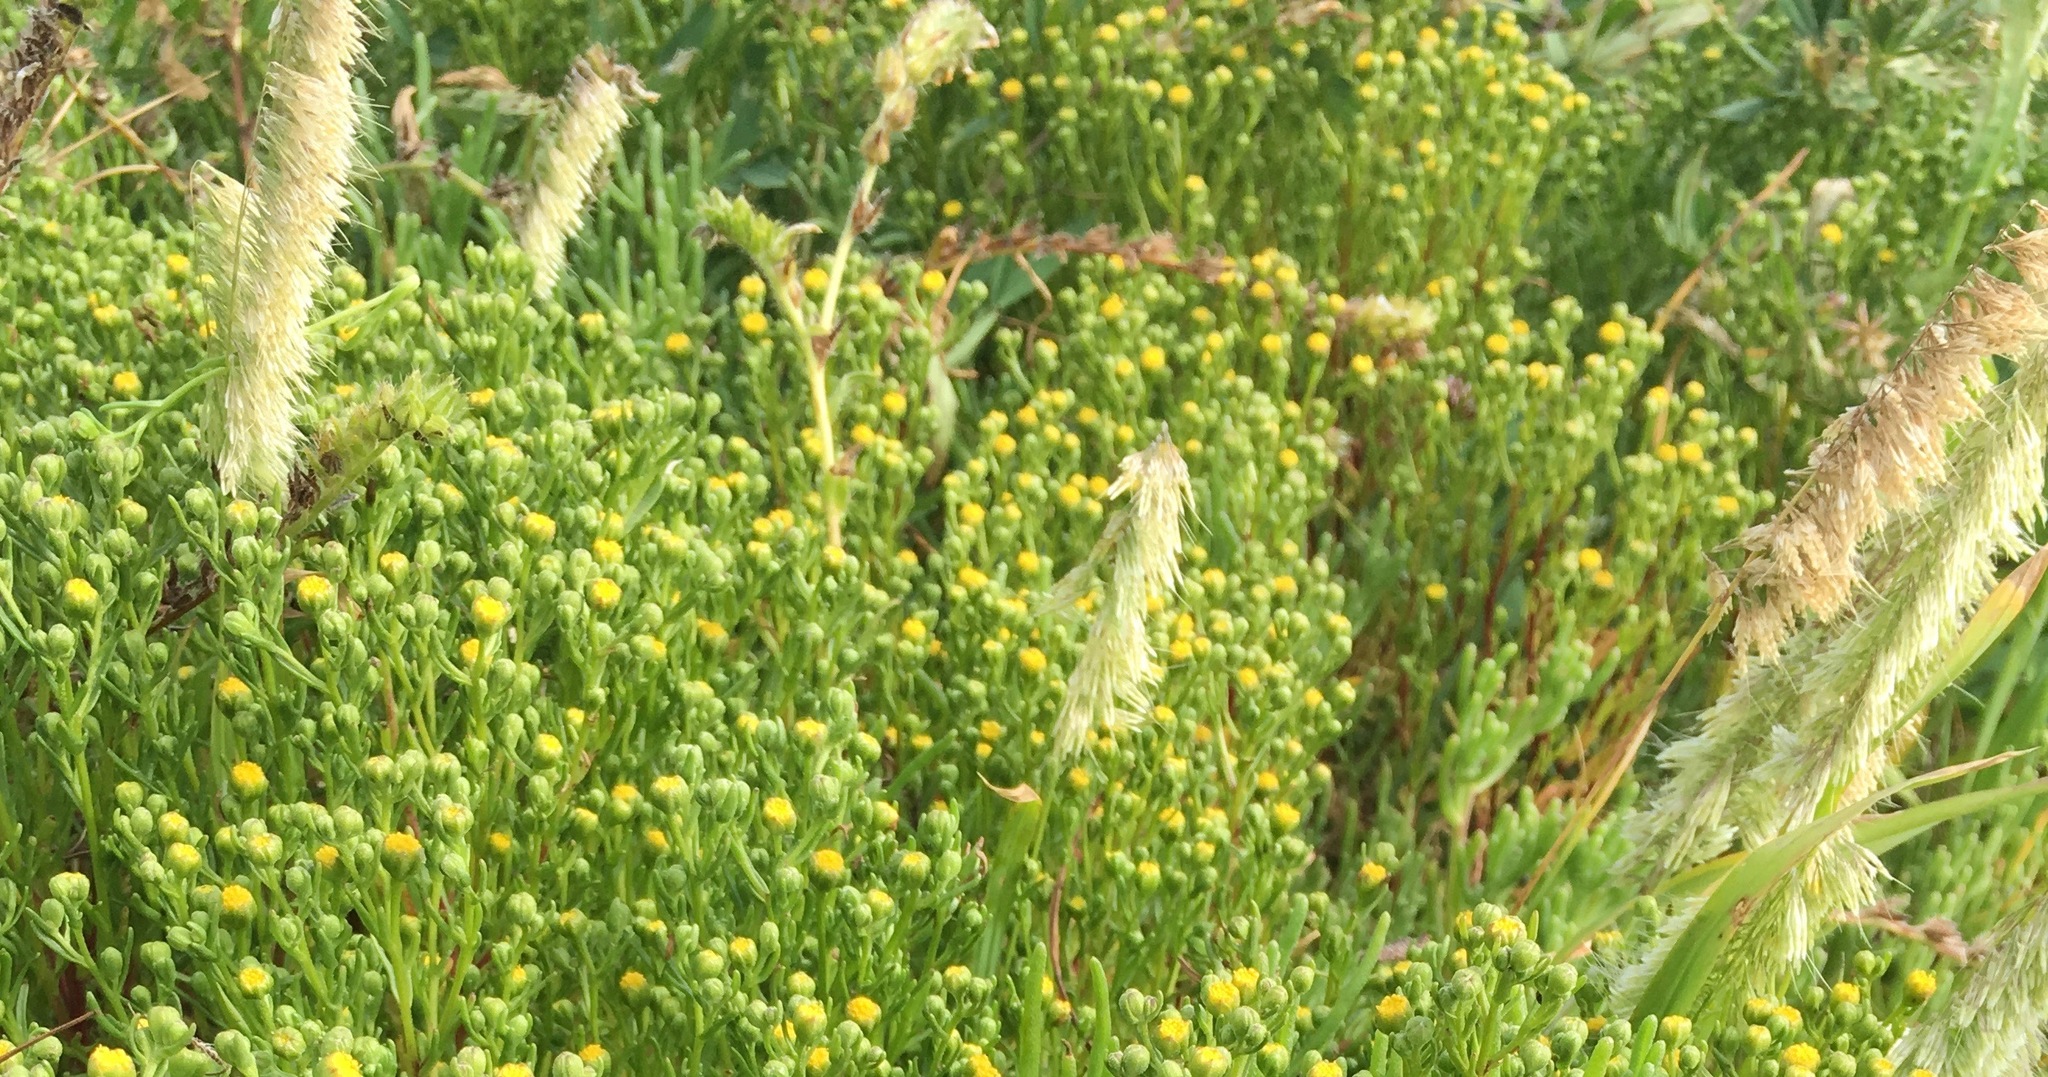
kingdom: Plantae
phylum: Tracheophyta
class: Liliopsida
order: Poales
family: Poaceae
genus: Lamarckia
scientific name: Lamarckia aurea
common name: Golden dog's-tail
